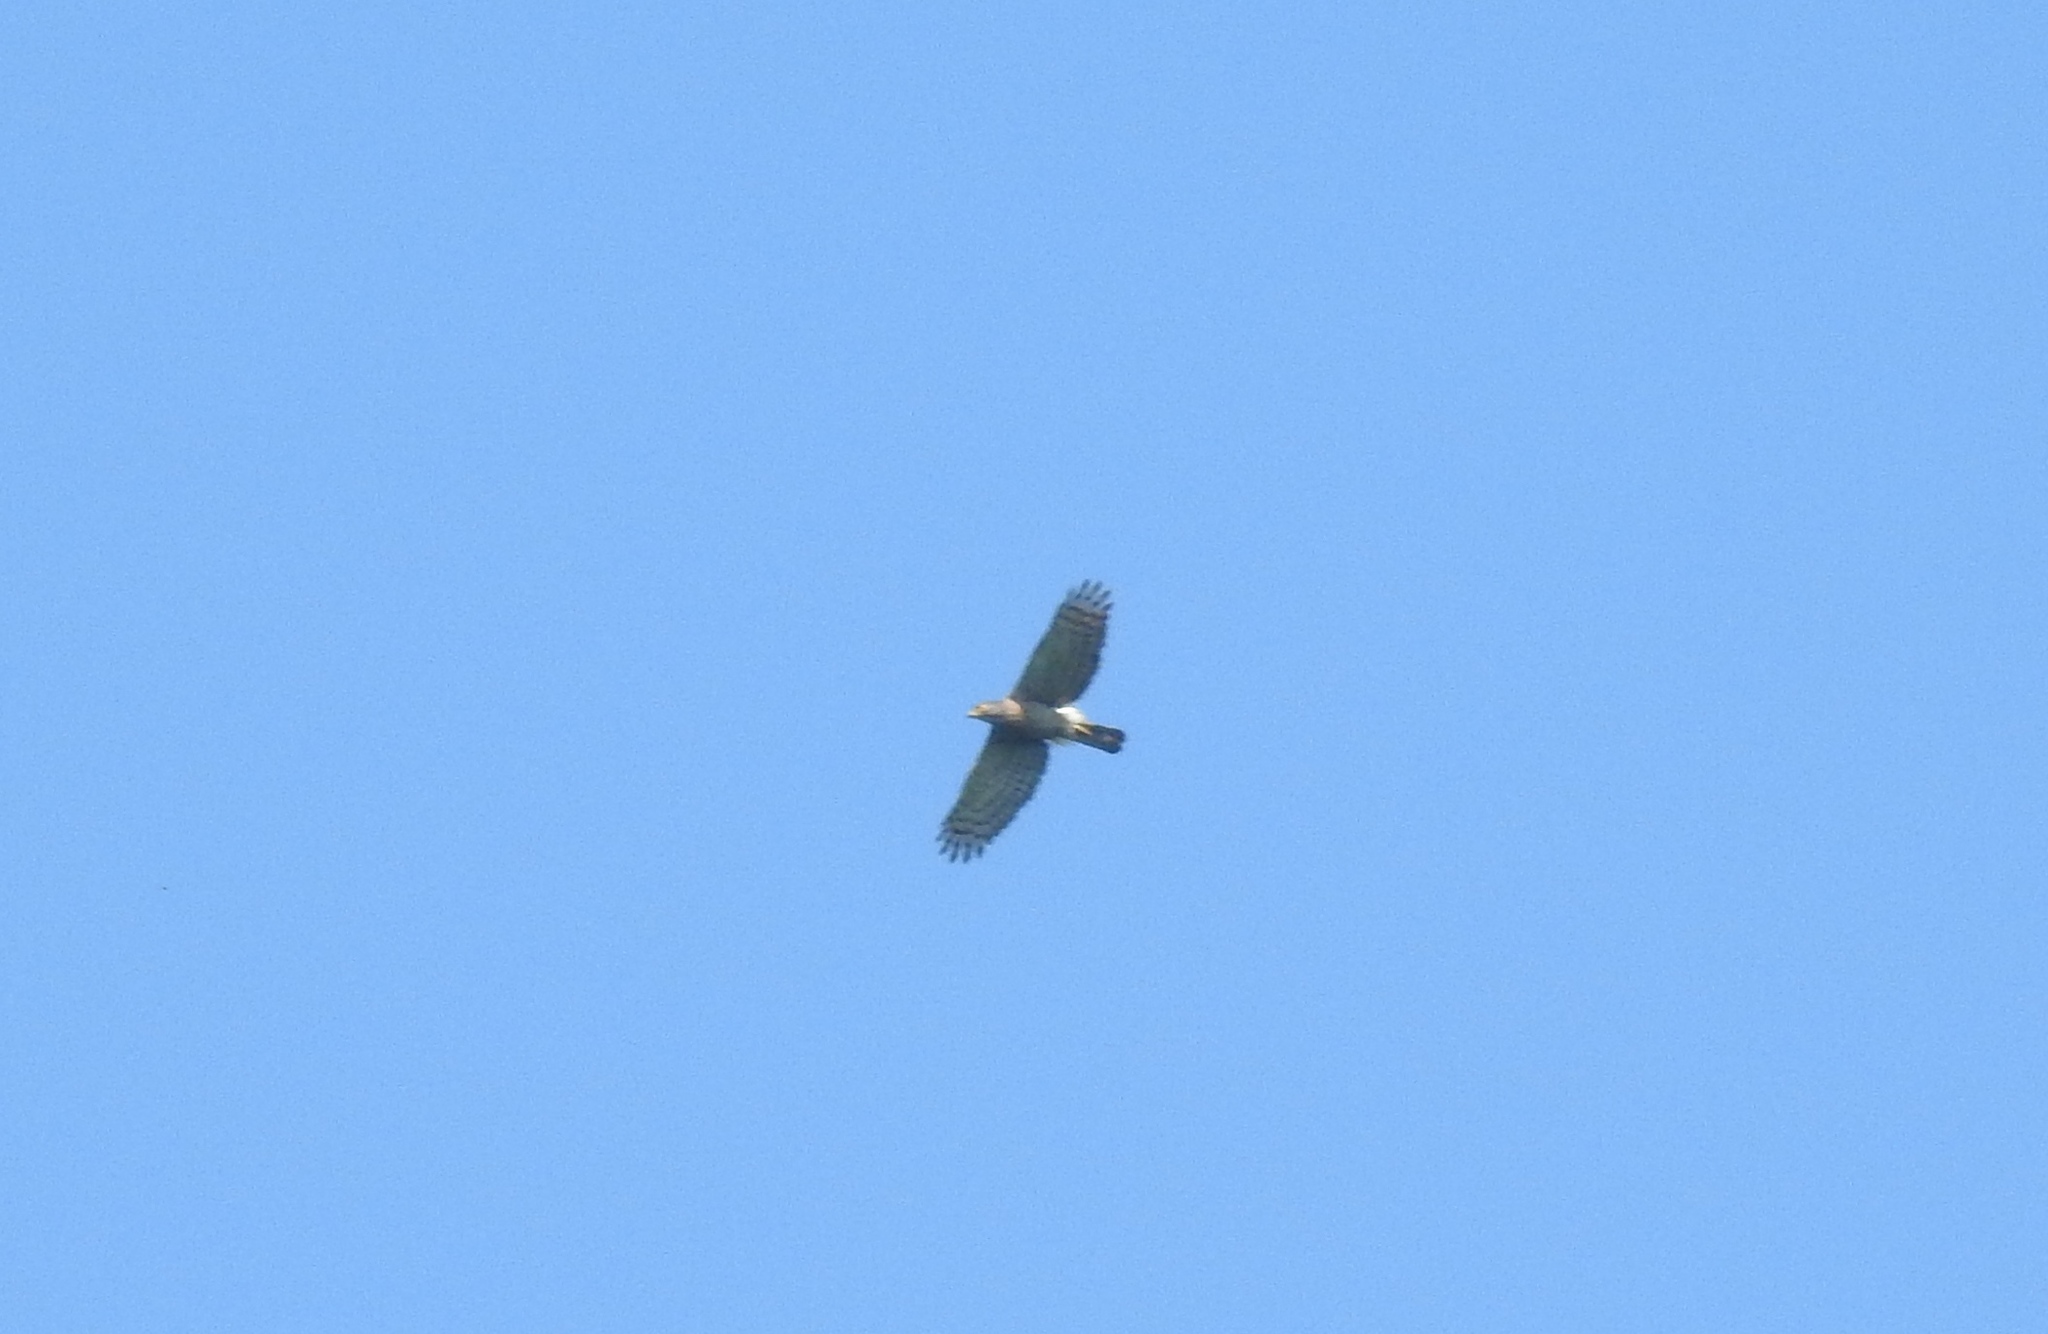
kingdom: Animalia
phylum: Chordata
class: Aves
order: Accipitriformes
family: Accipitridae
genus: Accipiter
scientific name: Accipiter trivirgatus
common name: Crested goshawk
